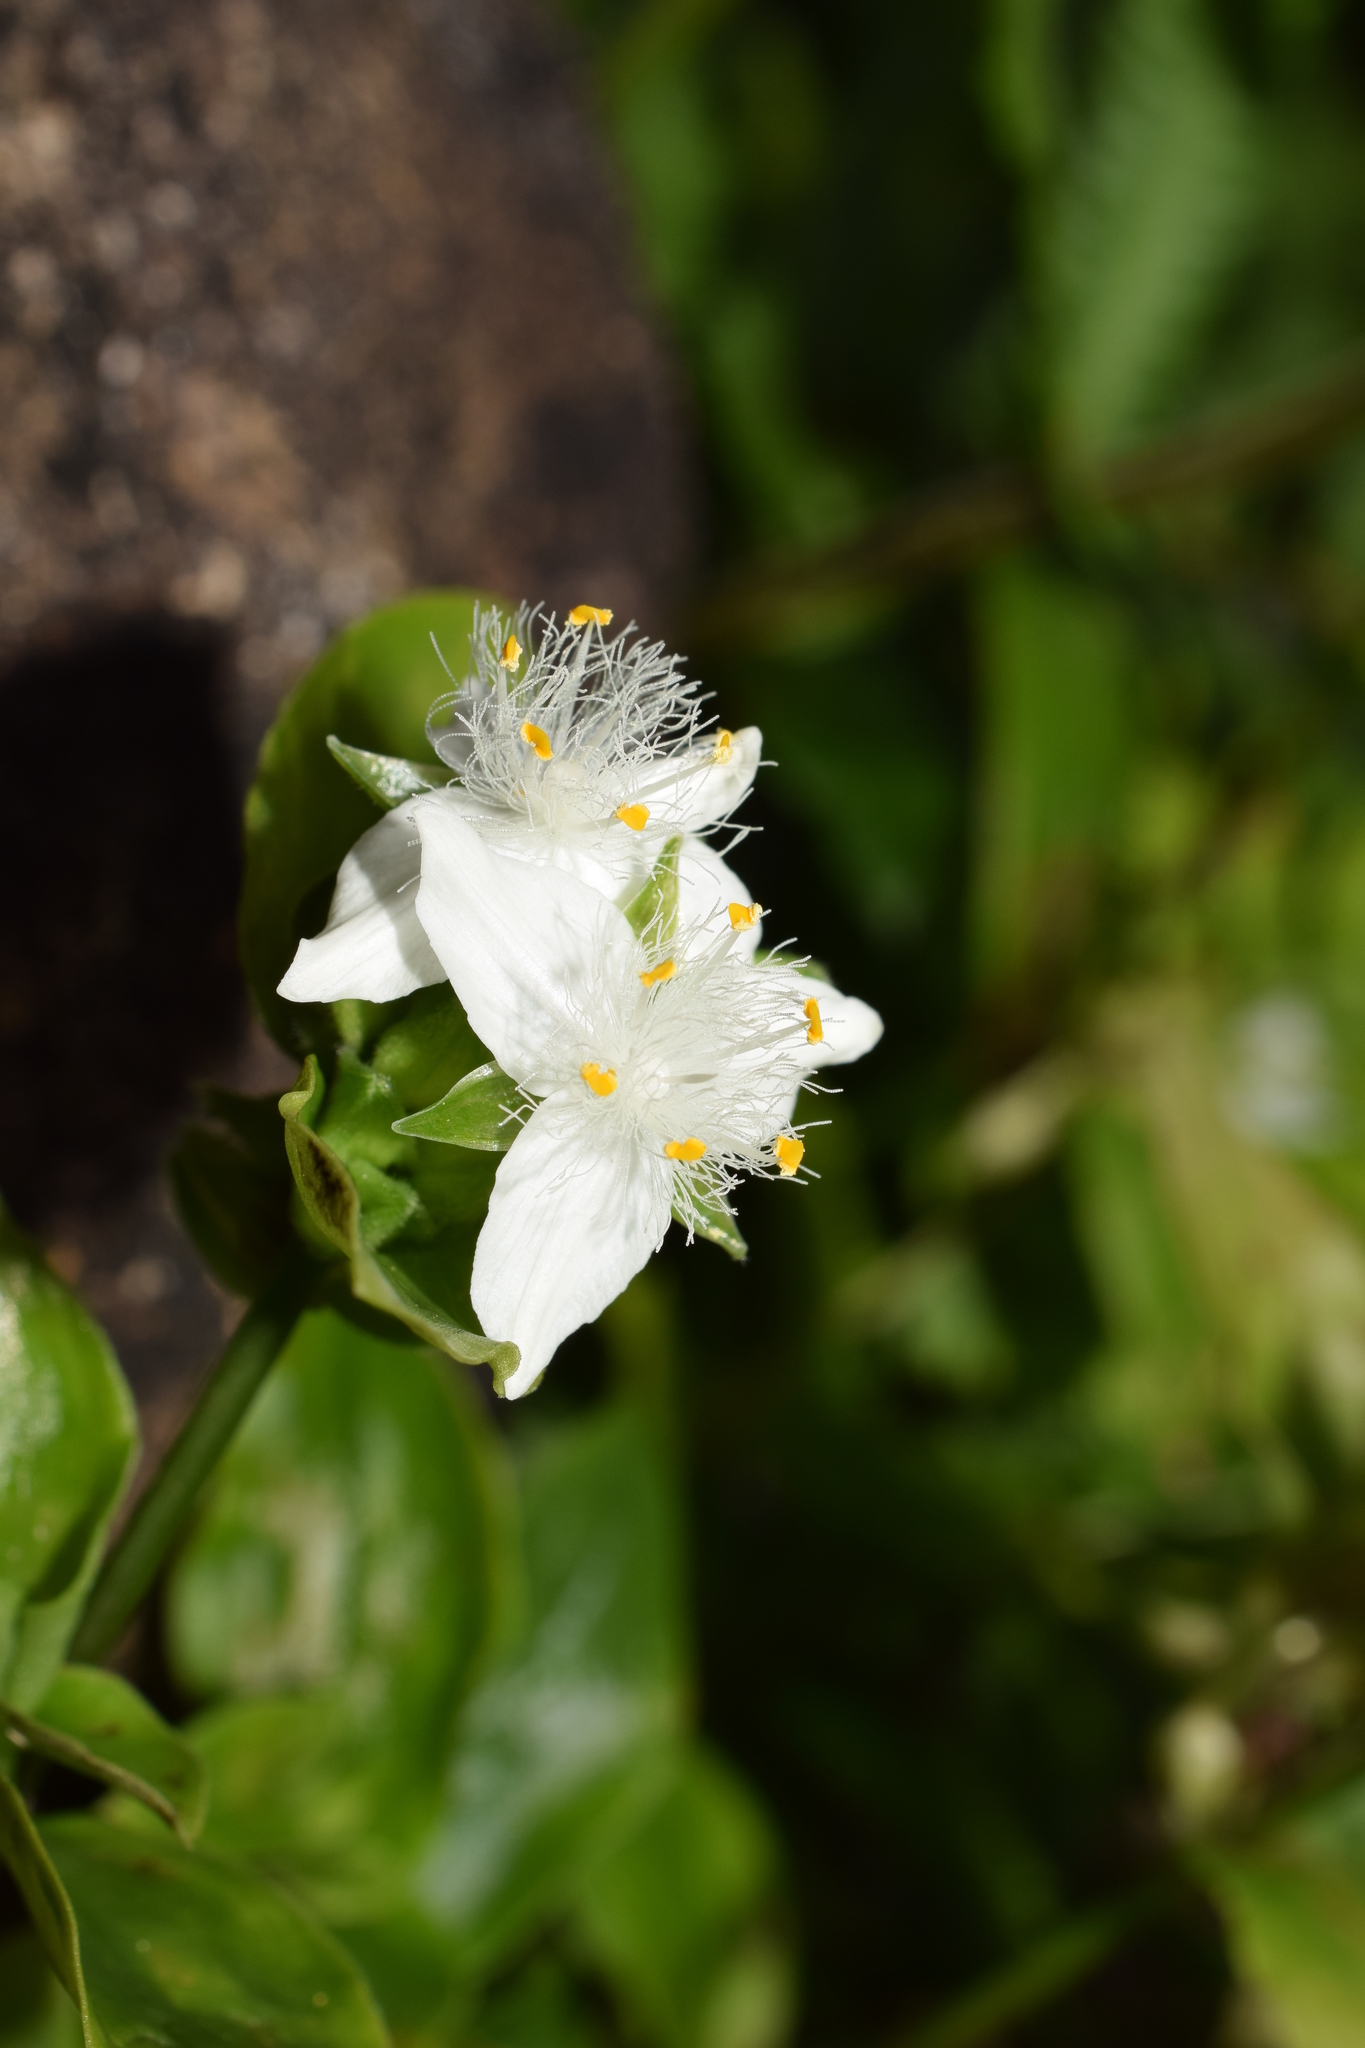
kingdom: Plantae
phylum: Tracheophyta
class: Liliopsida
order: Commelinales
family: Commelinaceae
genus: Tradescantia
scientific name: Tradescantia fluminensis
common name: Wandering-jew
